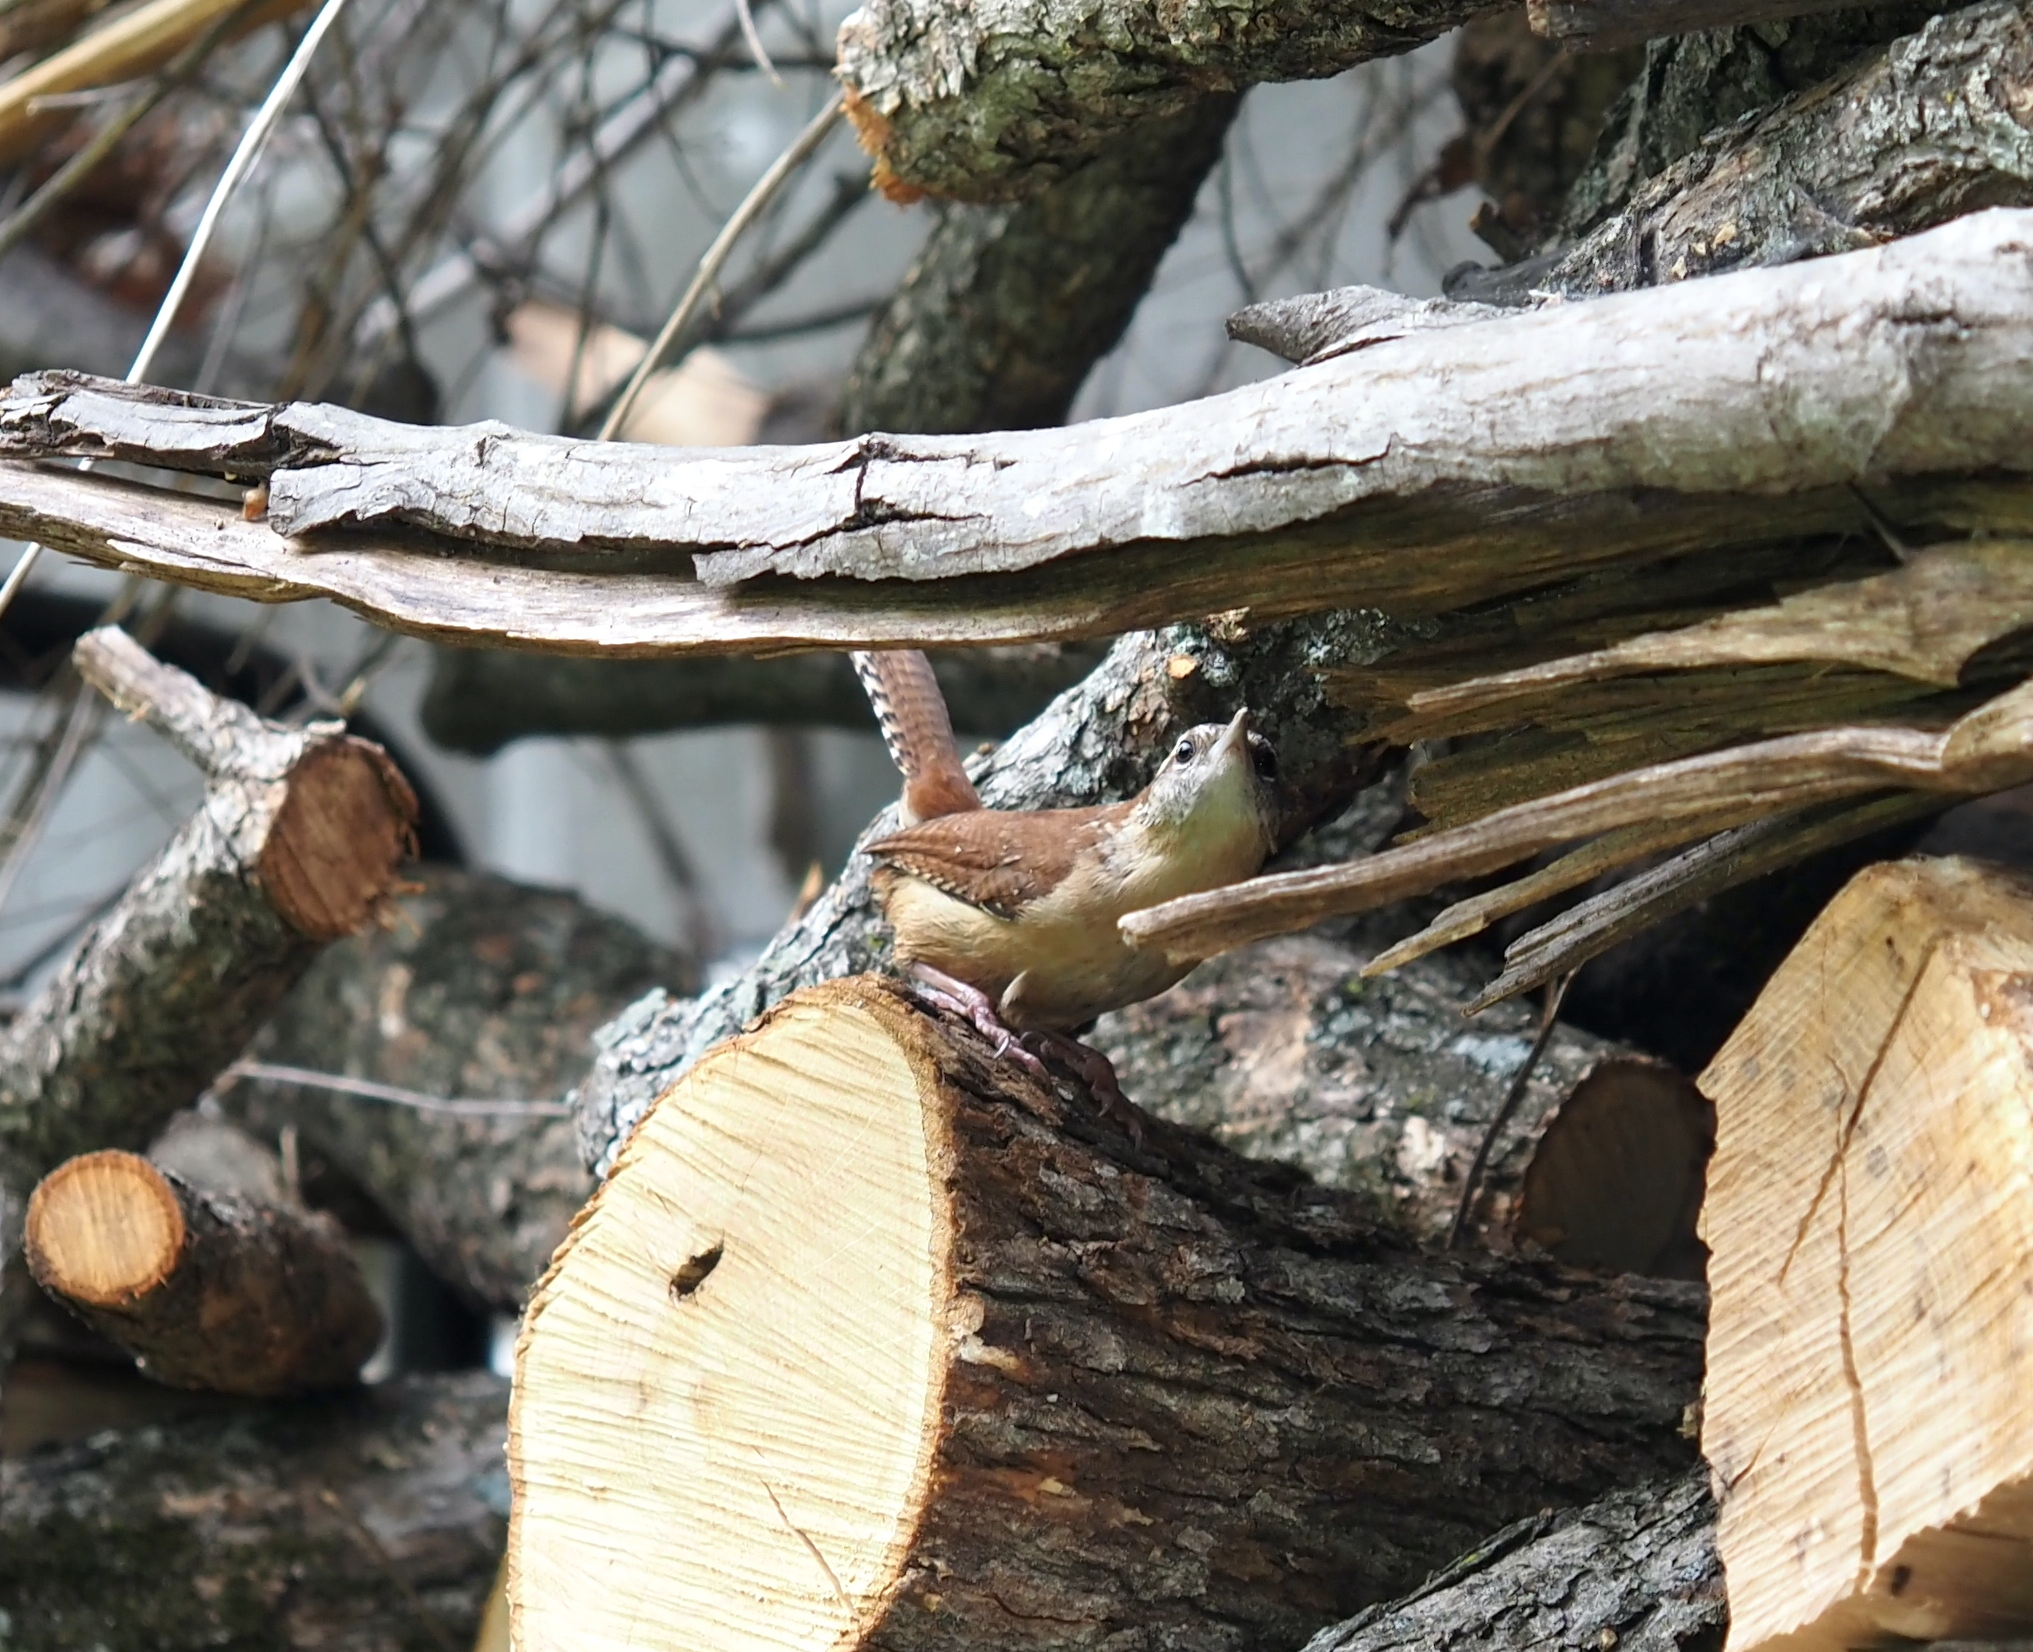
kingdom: Animalia
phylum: Chordata
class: Aves
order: Passeriformes
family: Troglodytidae
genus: Thryothorus
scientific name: Thryothorus ludovicianus
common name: Carolina wren
